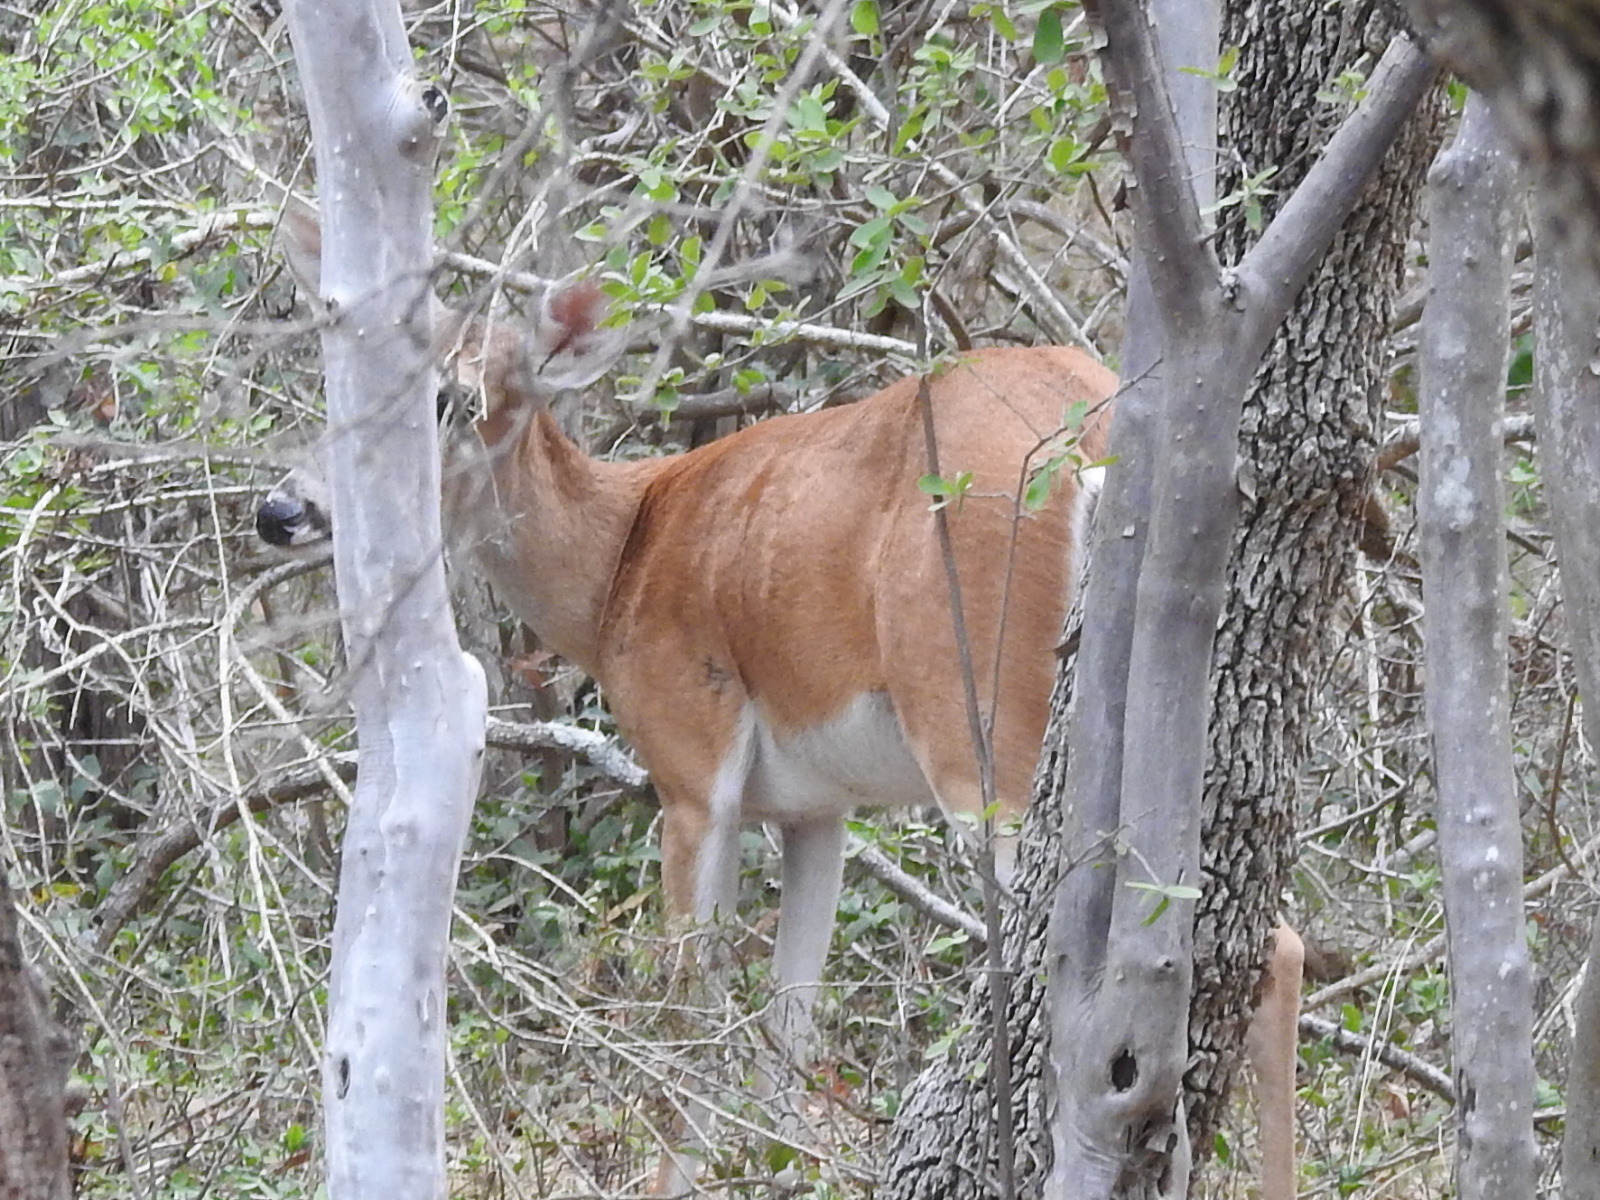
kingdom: Animalia
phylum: Chordata
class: Mammalia
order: Artiodactyla
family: Cervidae
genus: Odocoileus
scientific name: Odocoileus virginianus
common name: White-tailed deer
